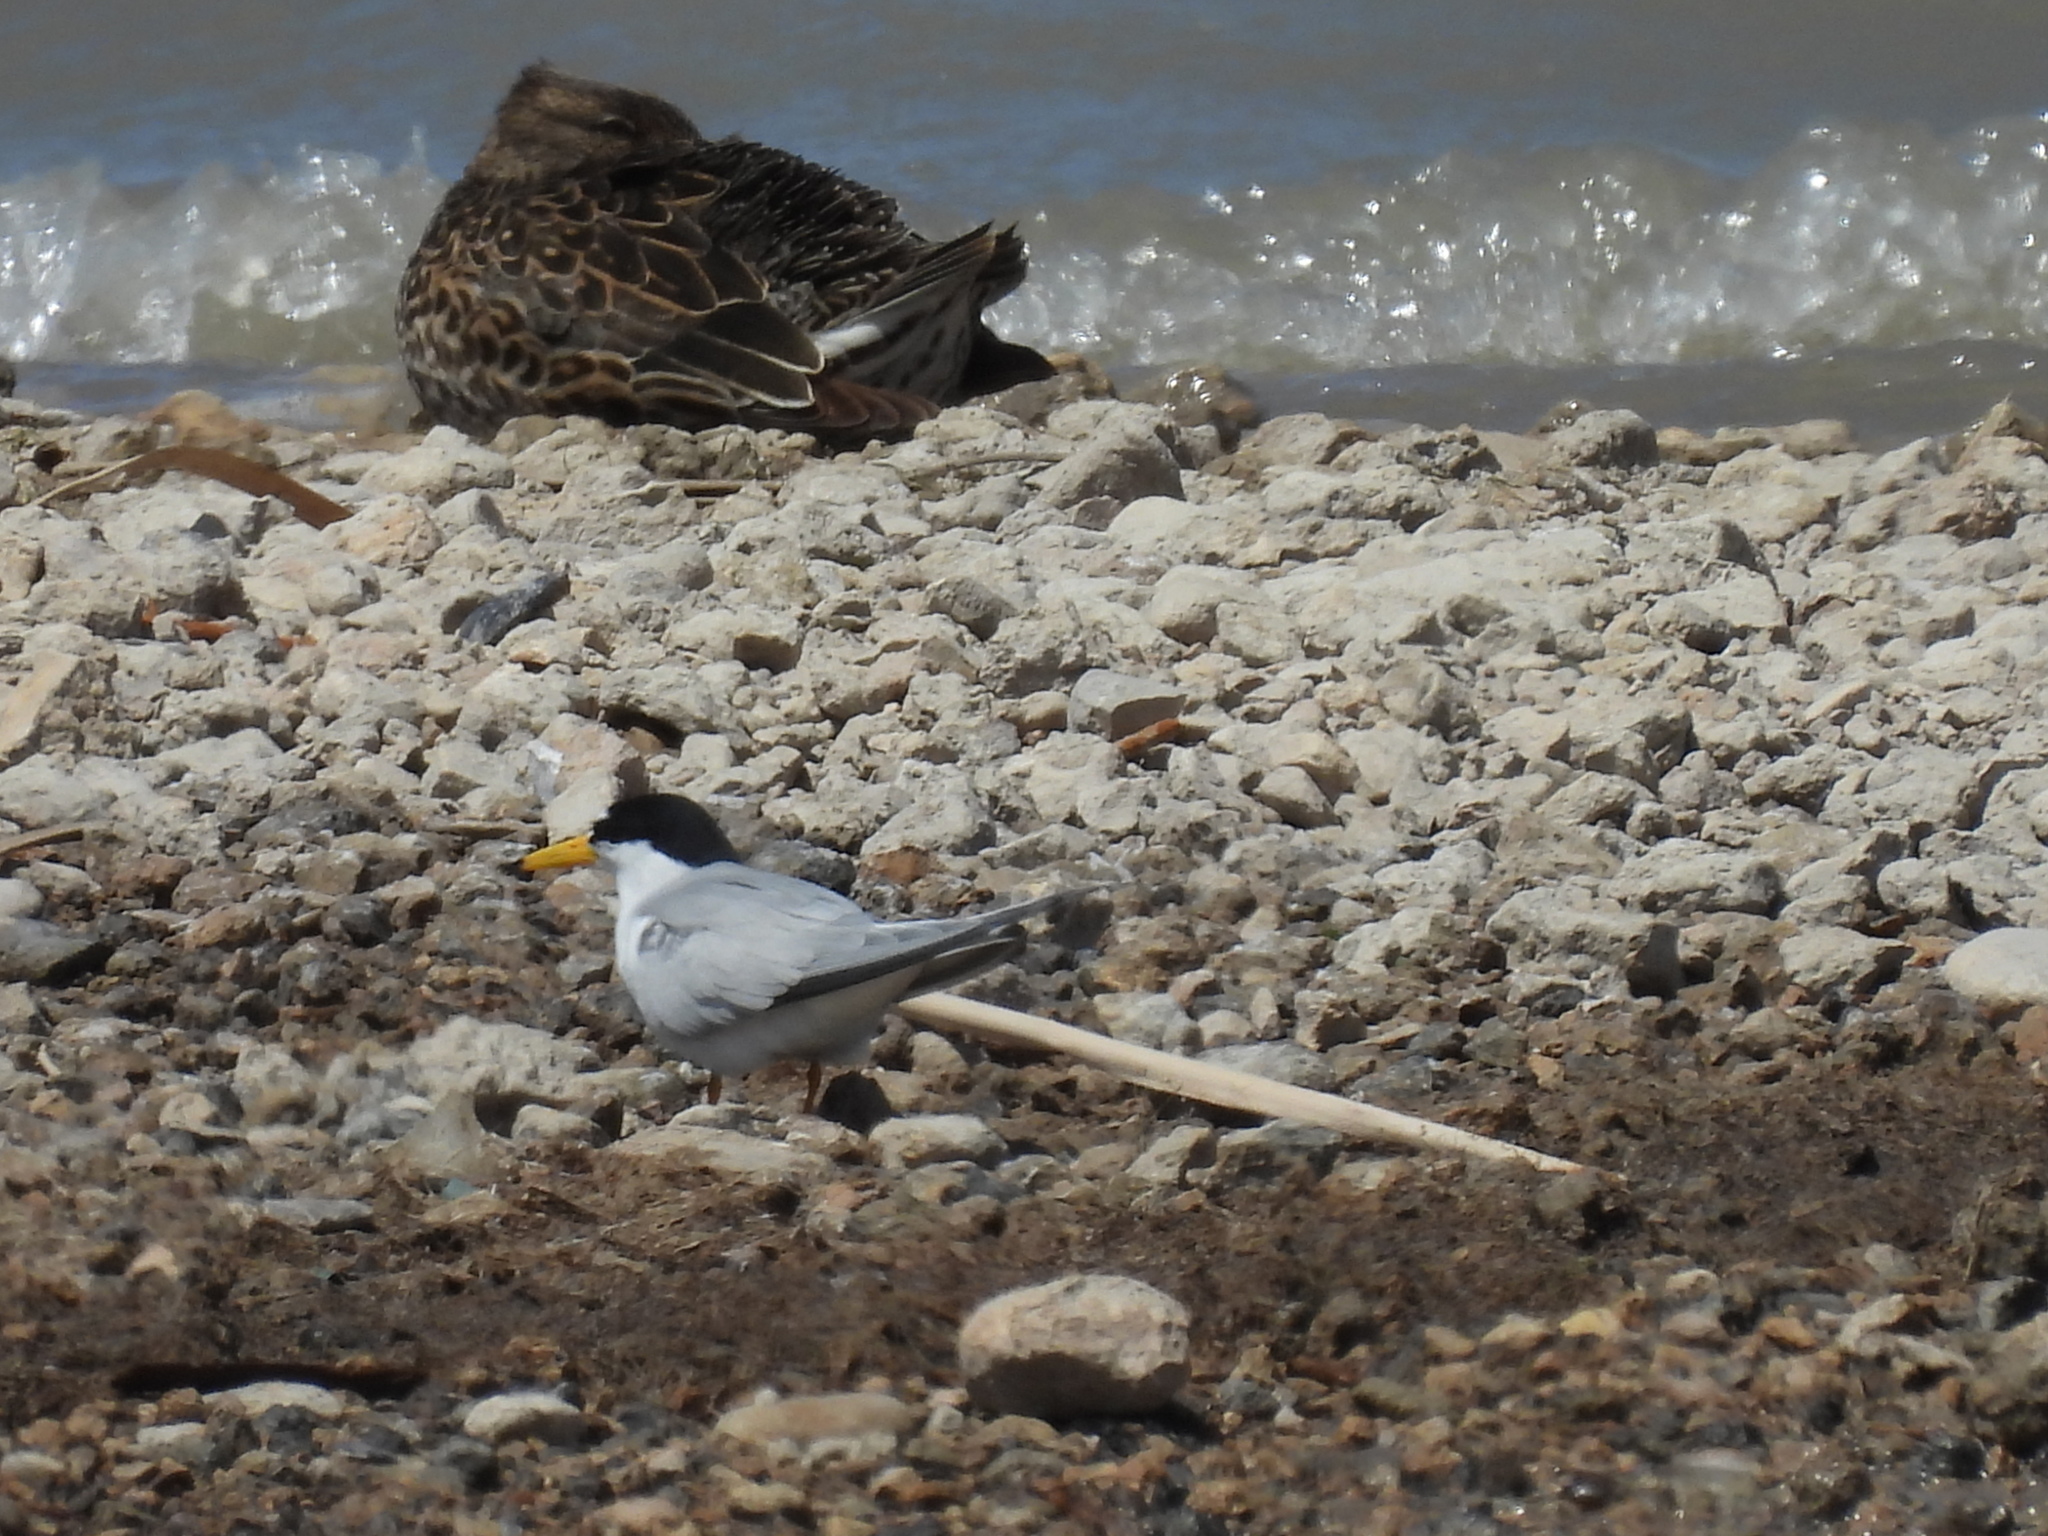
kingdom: Animalia
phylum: Chordata
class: Aves
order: Charadriiformes
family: Laridae
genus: Sternula
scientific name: Sternula antillarum
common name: Least tern
